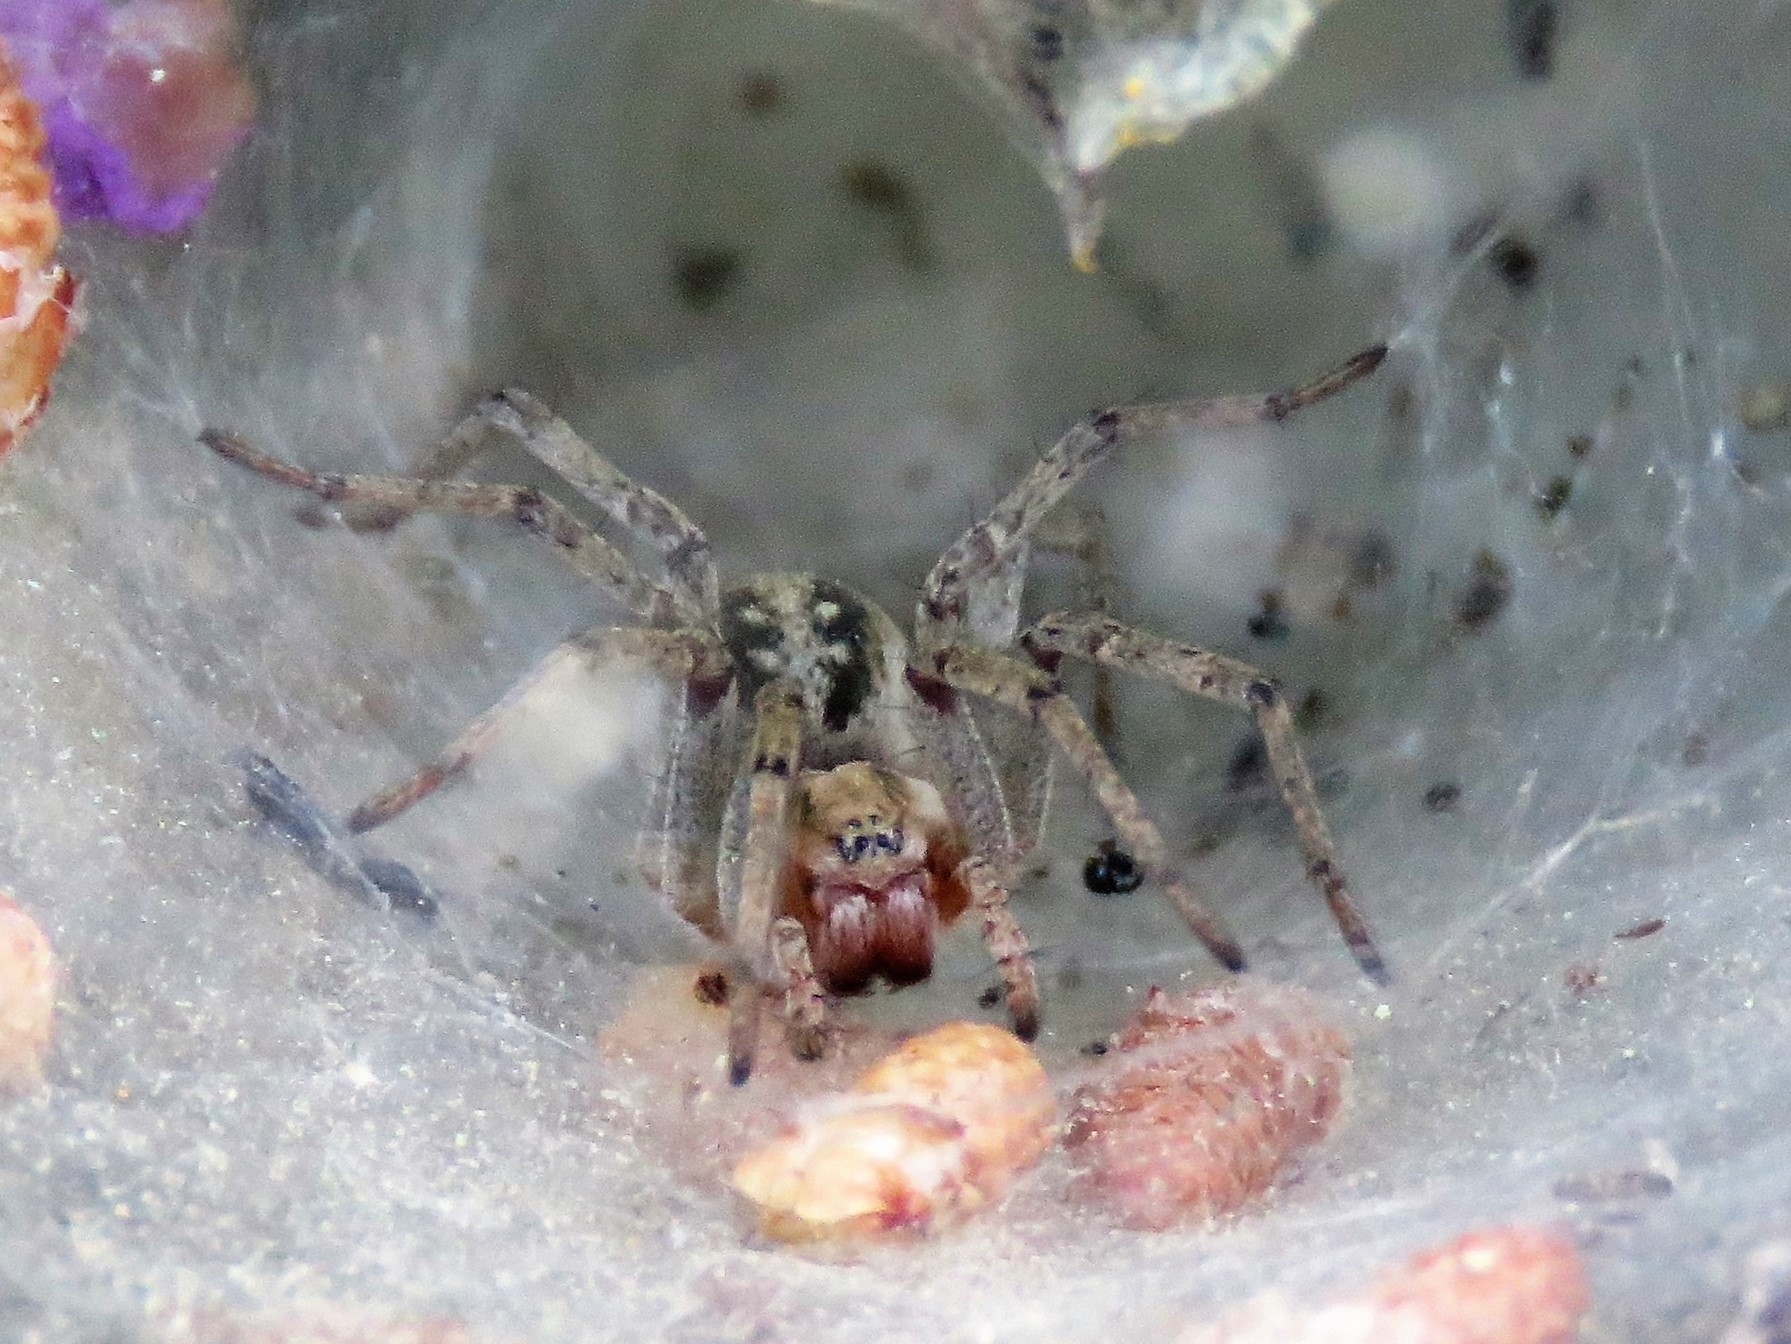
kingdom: Animalia
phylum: Arthropoda
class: Arachnida
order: Araneae
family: Agelenidae
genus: Agelena
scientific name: Agelena labyrinthica
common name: Labyrinth spider
